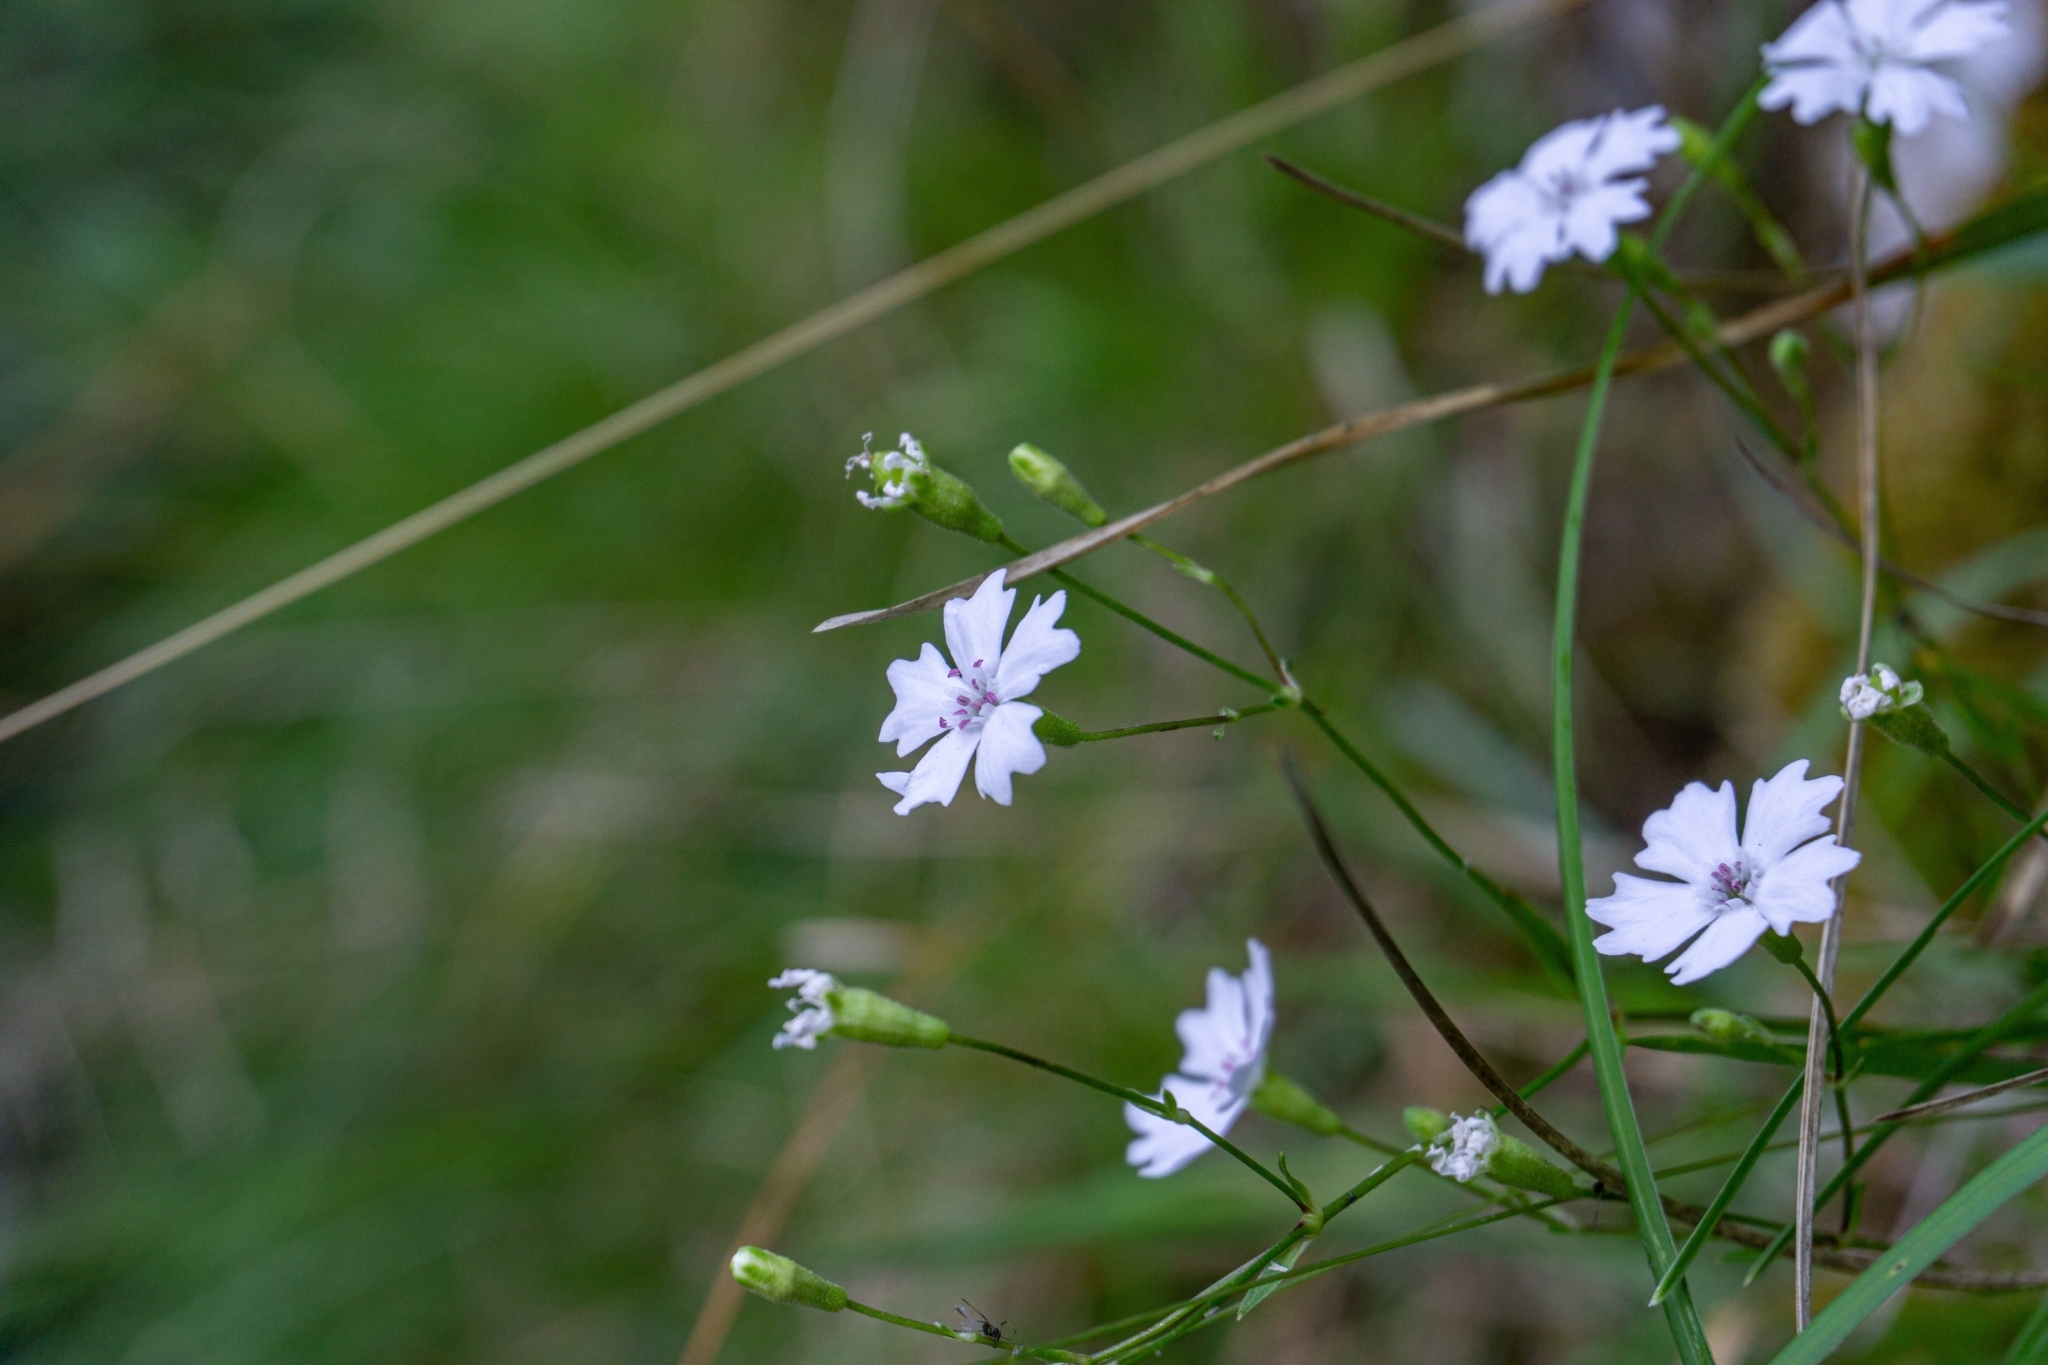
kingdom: Plantae
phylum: Tracheophyta
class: Magnoliopsida
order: Caryophyllales
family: Caryophyllaceae
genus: Heliosperma
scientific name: Heliosperma alpestre
